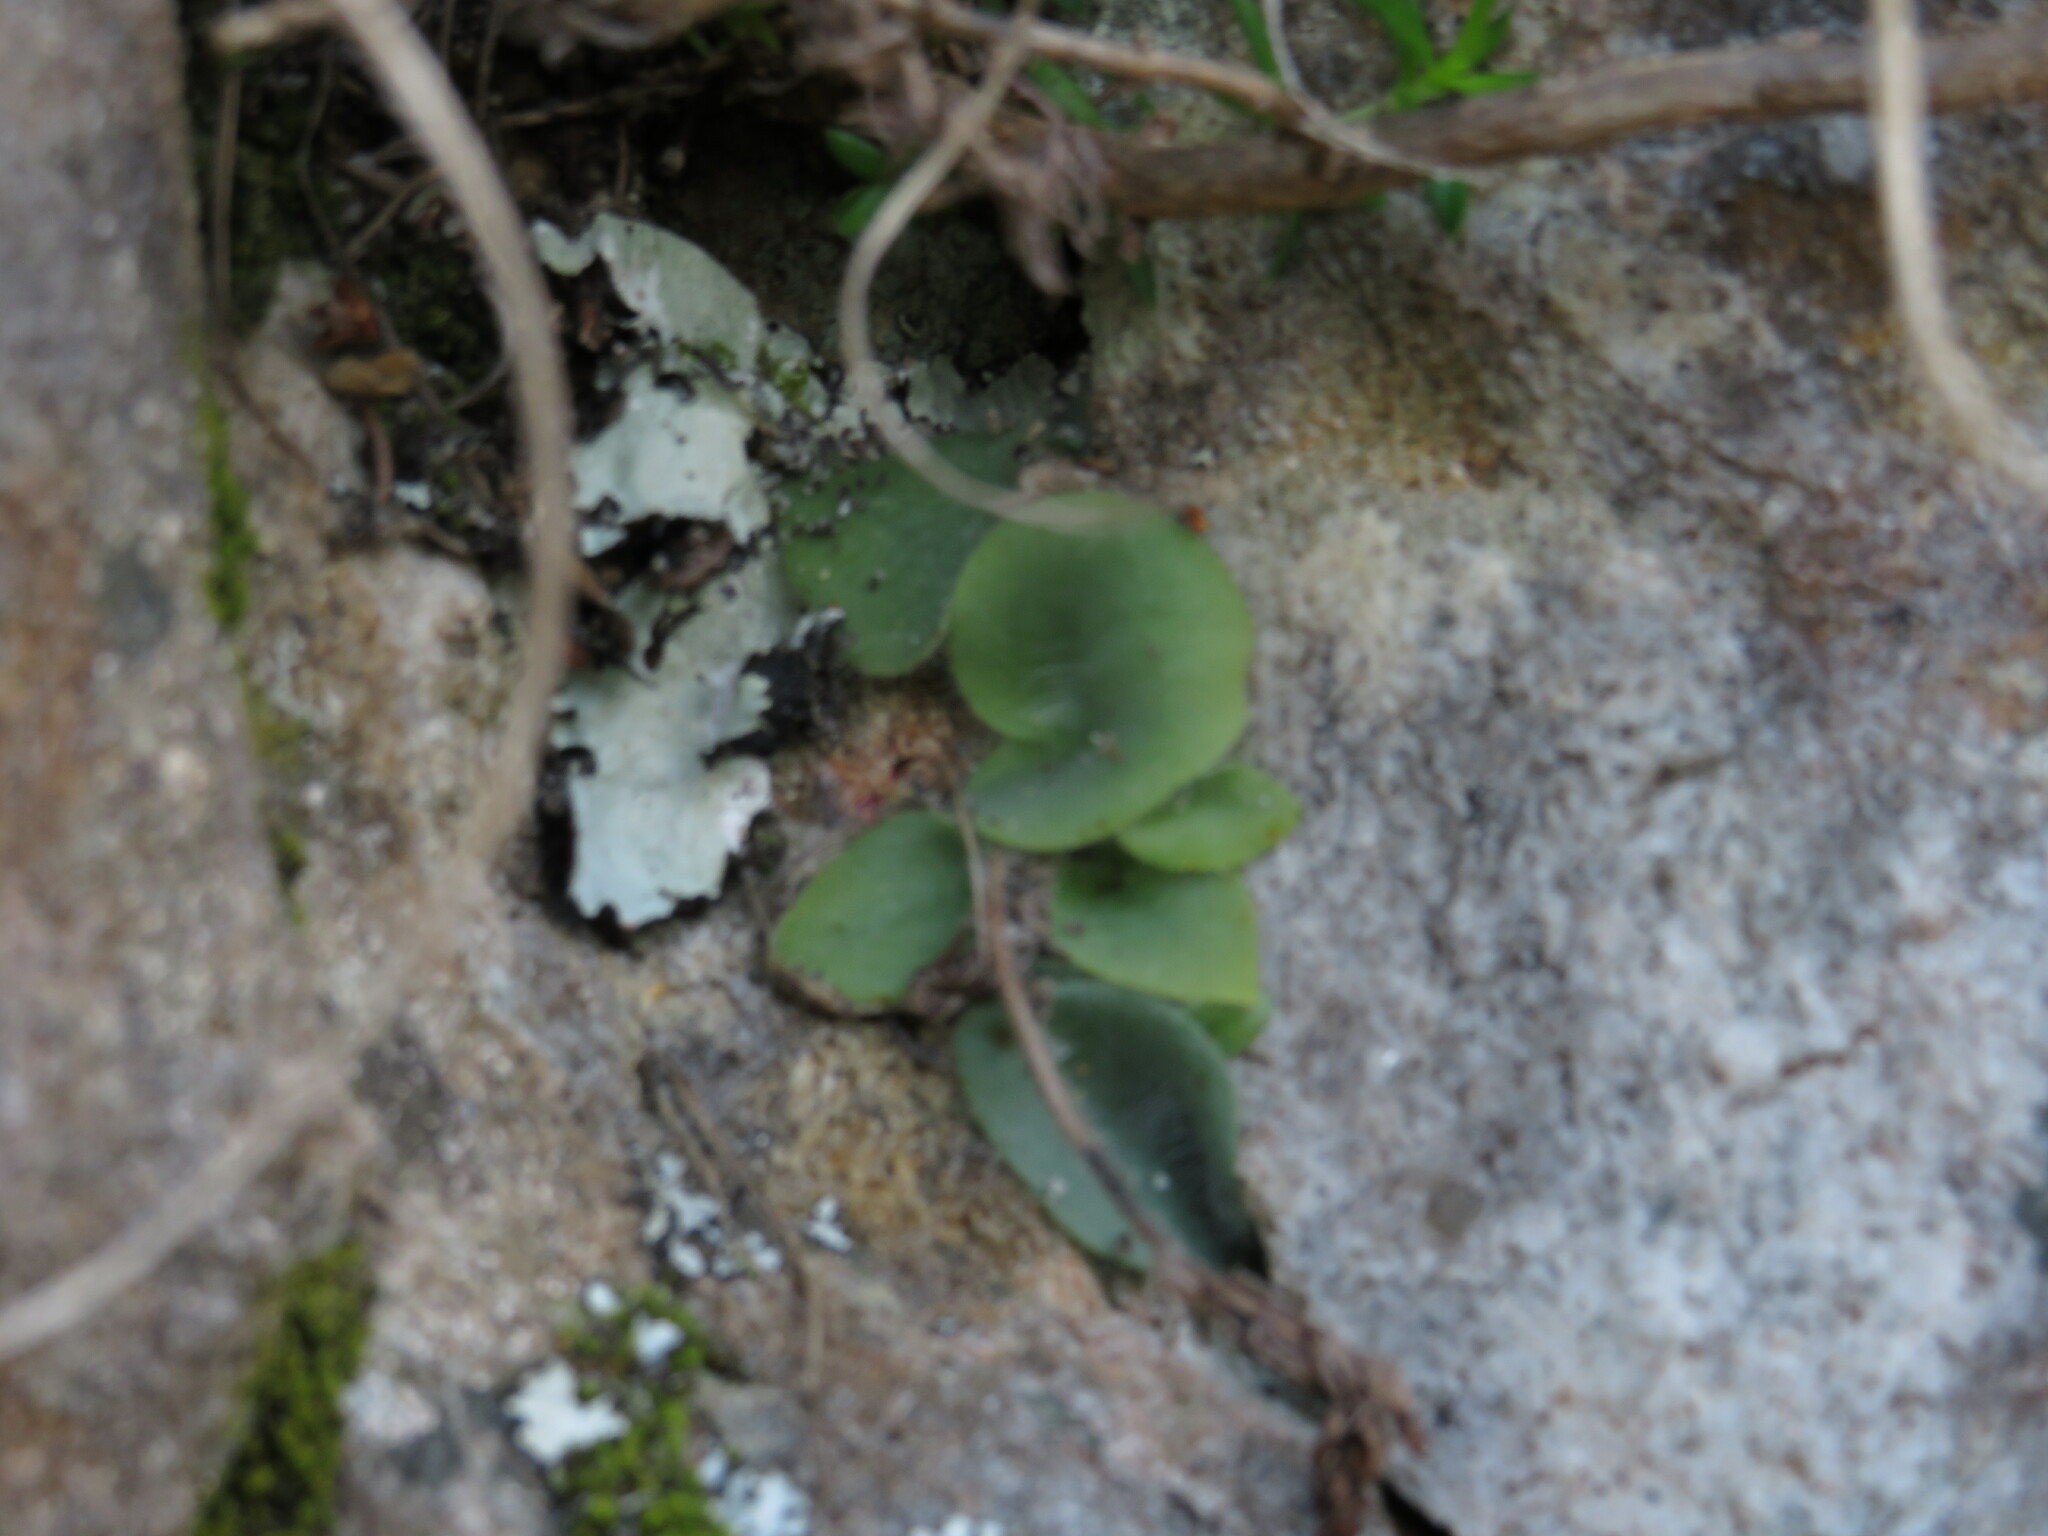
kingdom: Plantae
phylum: Tracheophyta
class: Liliopsida
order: Asparagales
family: Orchidaceae
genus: Holothrix
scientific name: Holothrix villosa
